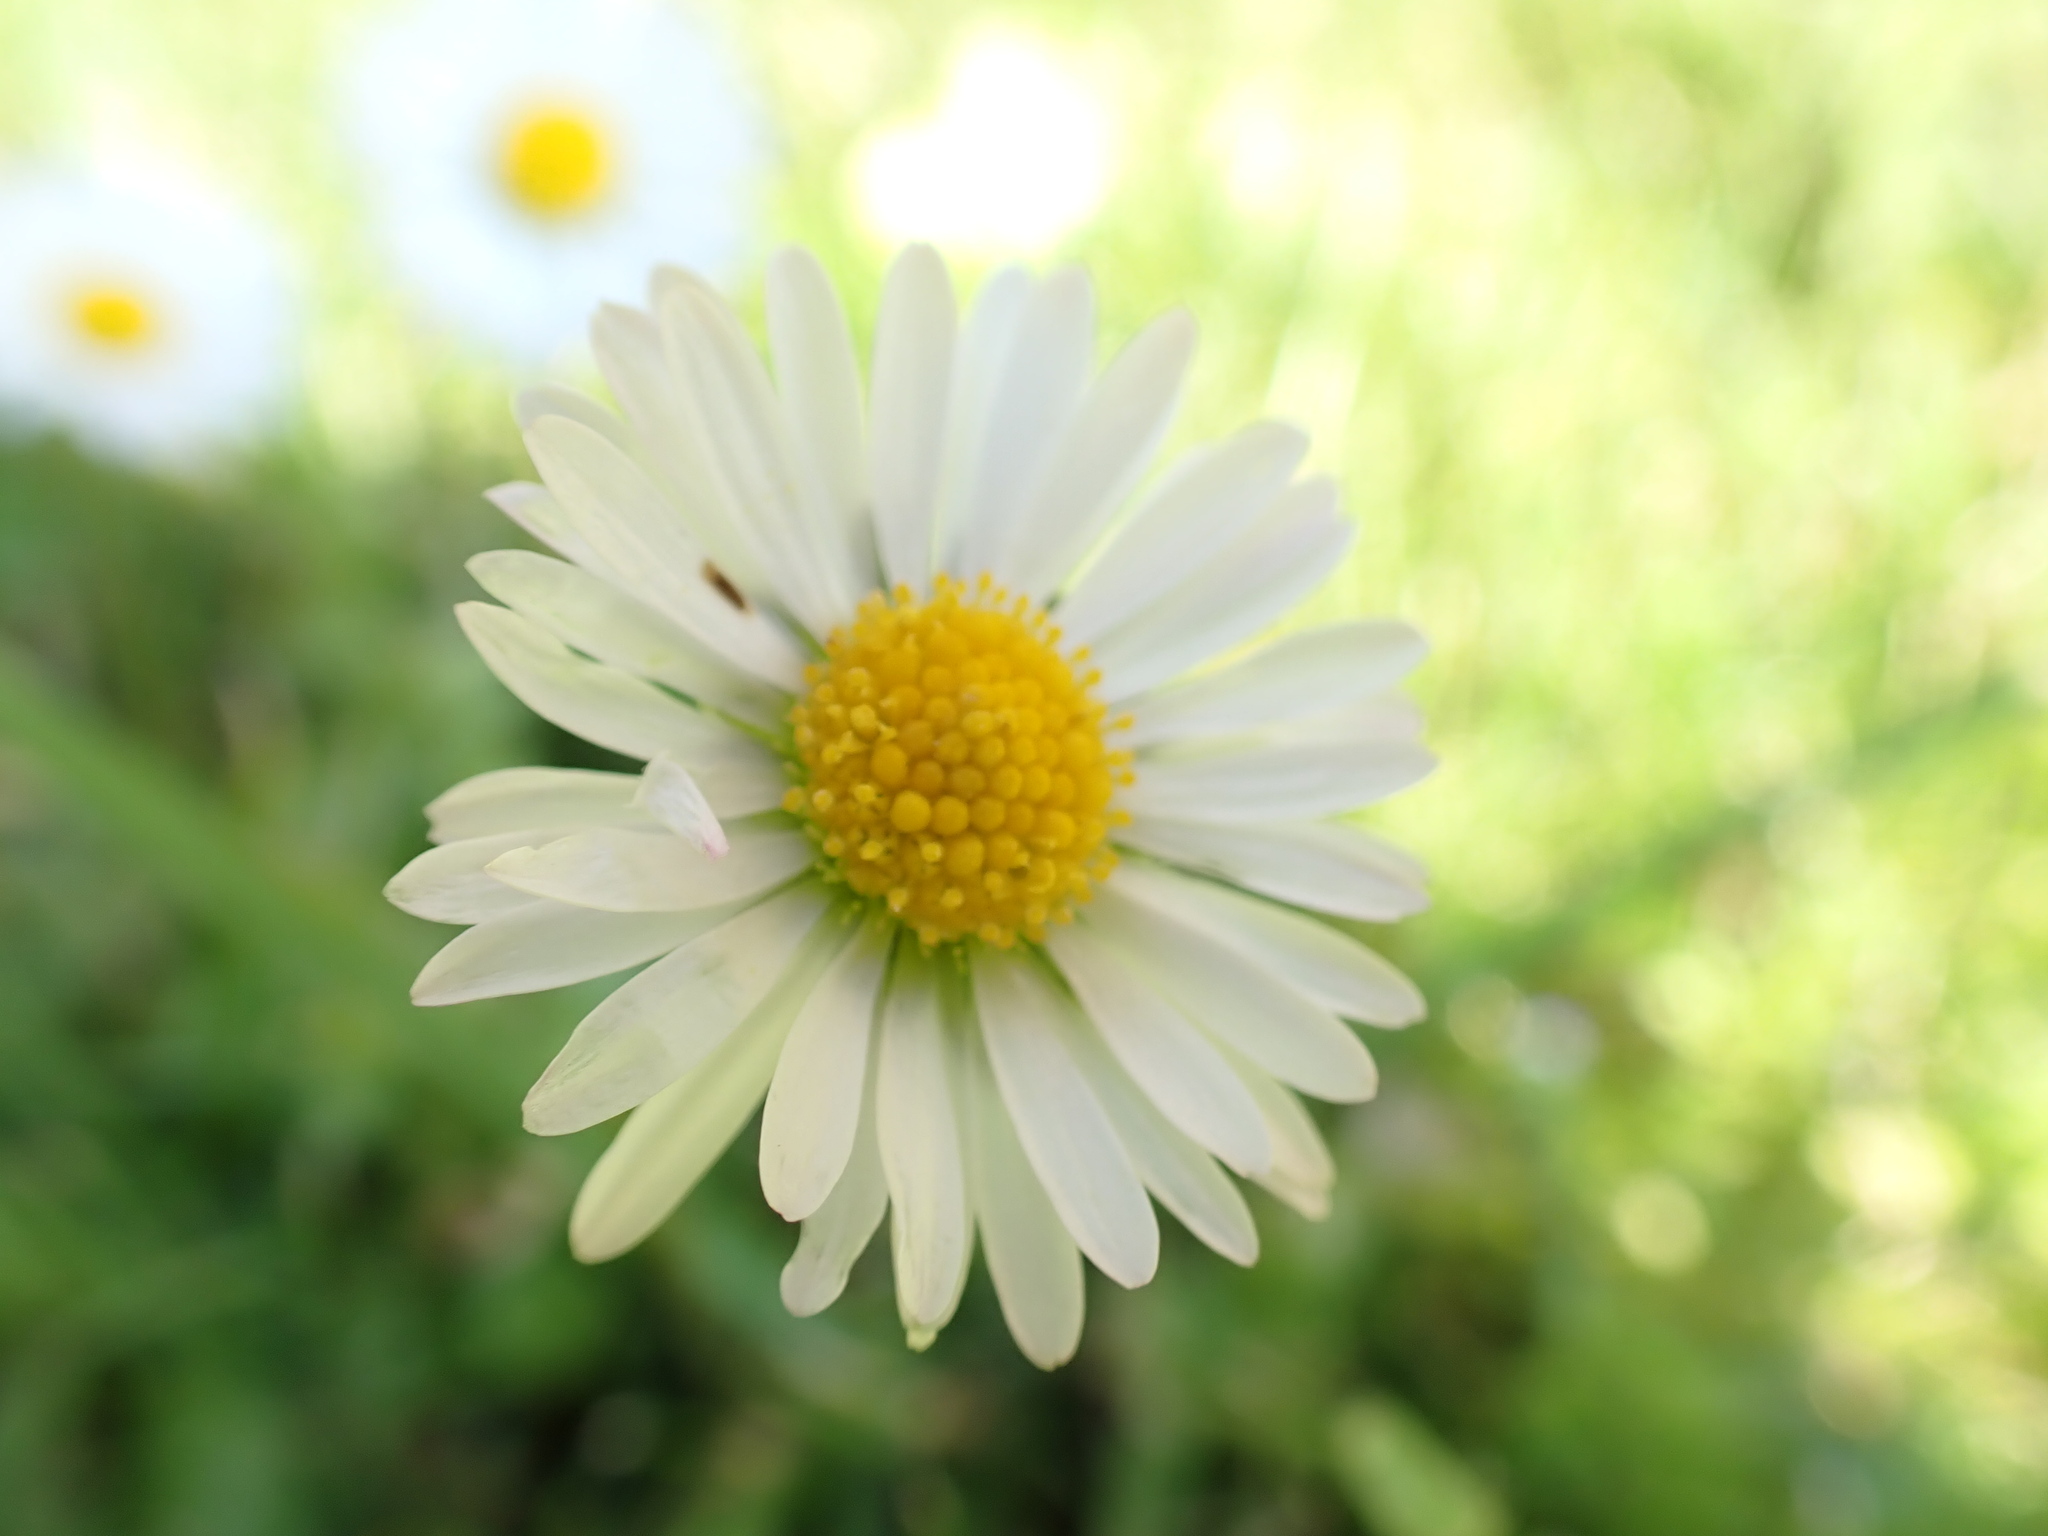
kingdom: Plantae
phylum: Tracheophyta
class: Magnoliopsida
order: Asterales
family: Asteraceae
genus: Bellis
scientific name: Bellis perennis
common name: Lawndaisy
